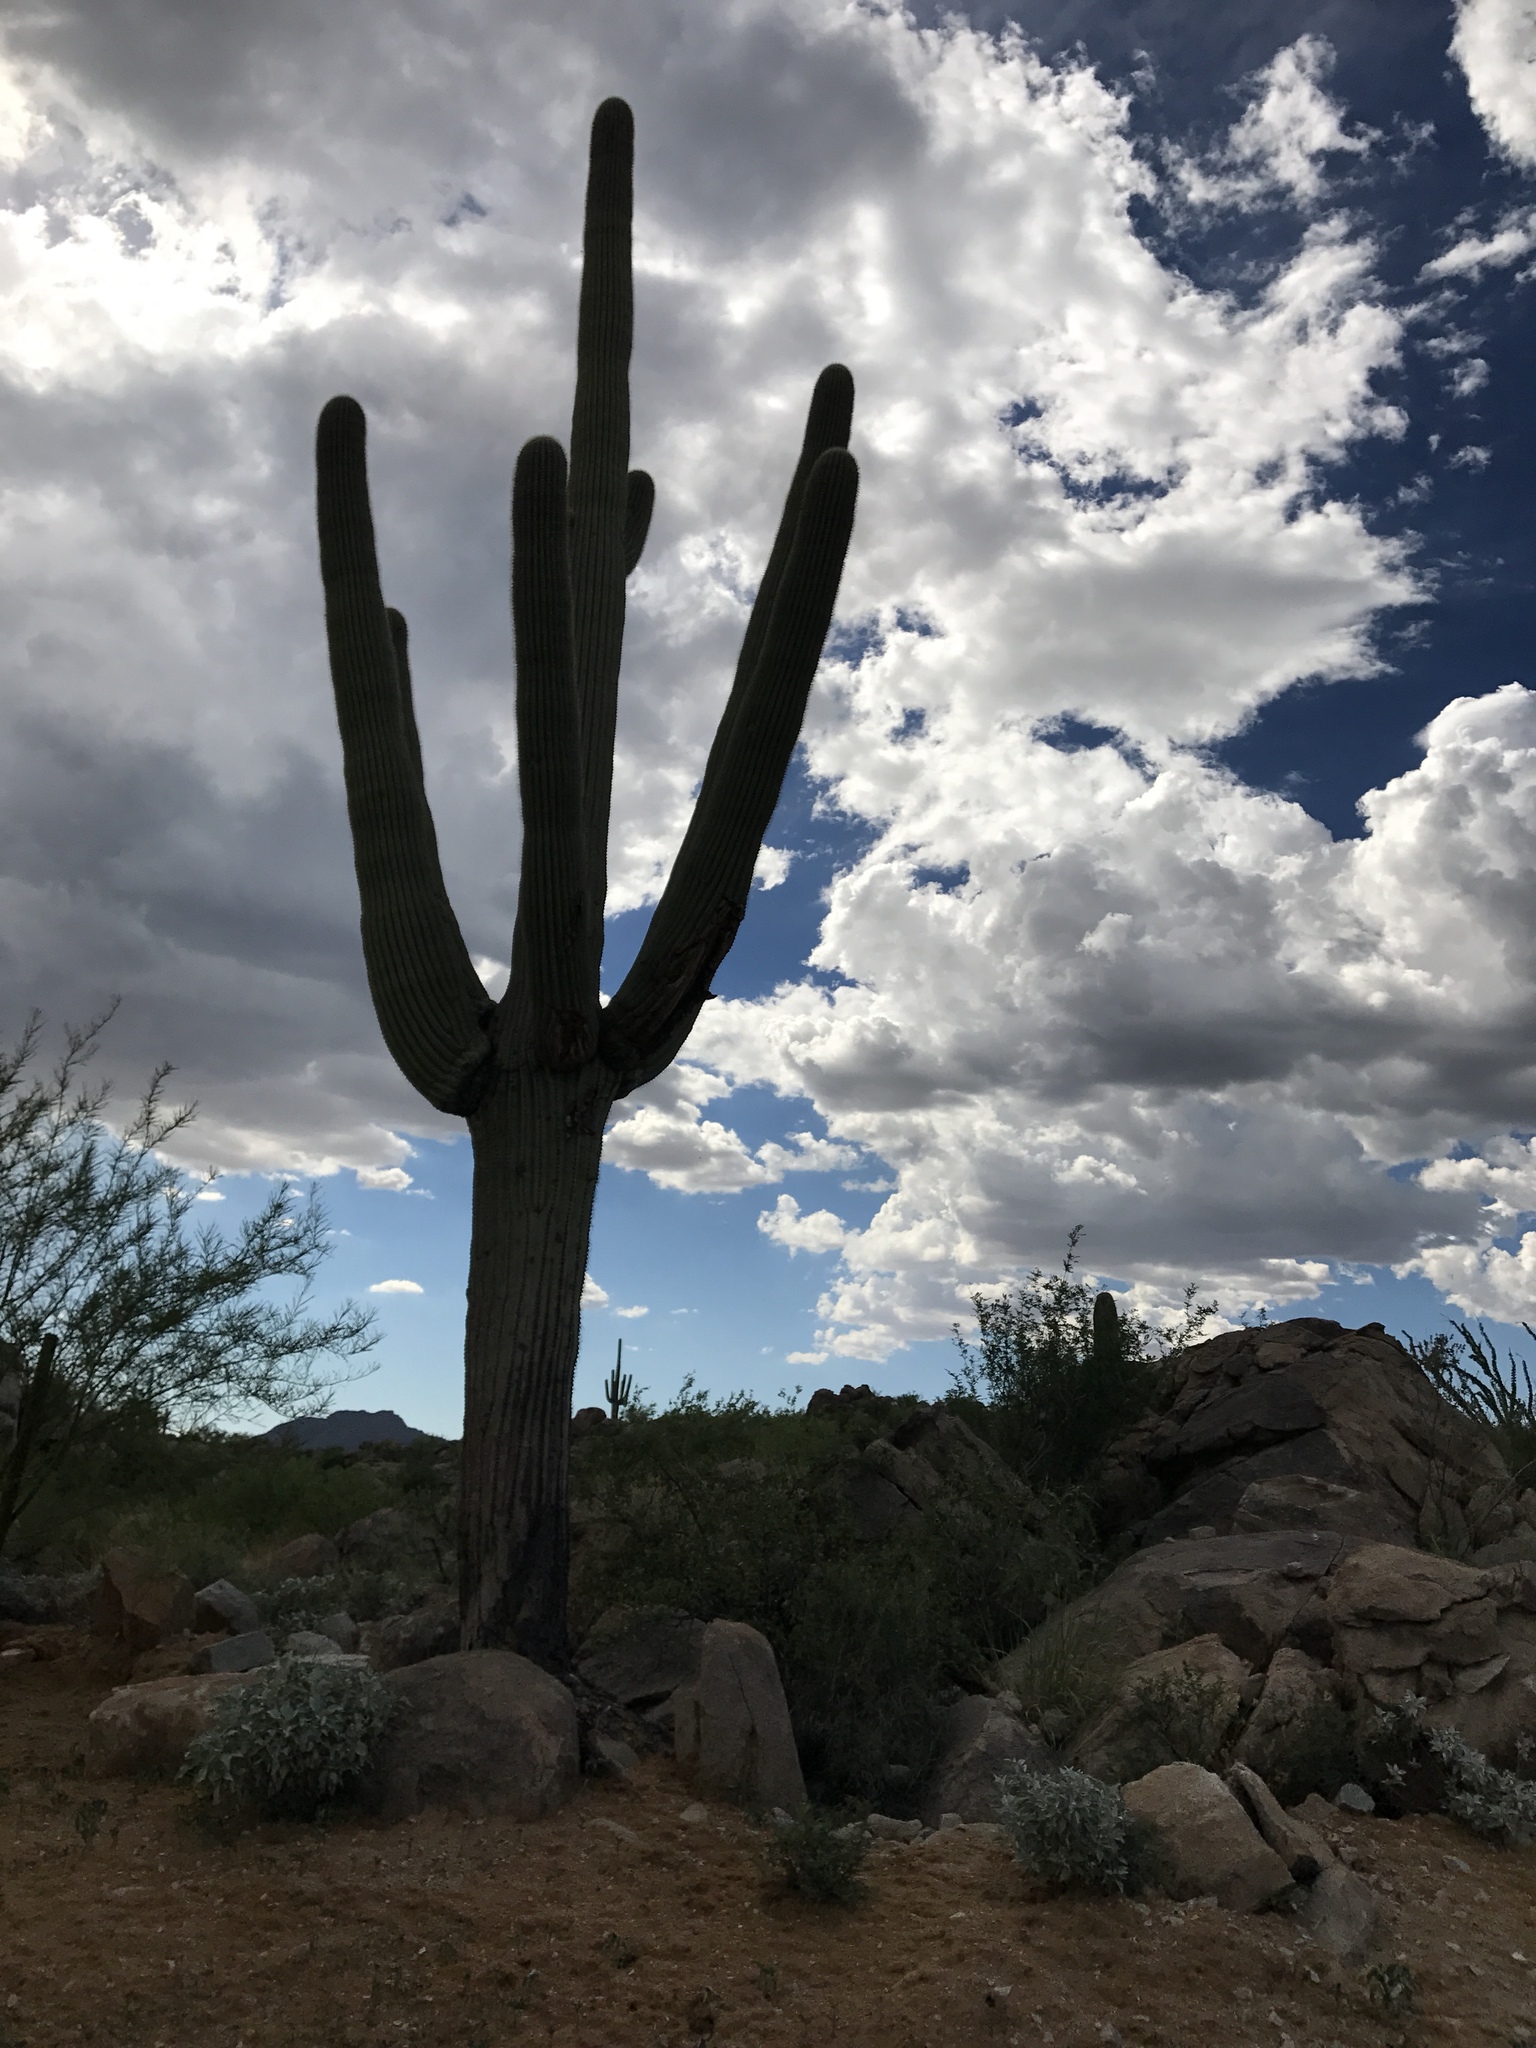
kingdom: Plantae
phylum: Tracheophyta
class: Magnoliopsida
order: Caryophyllales
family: Cactaceae
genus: Carnegiea
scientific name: Carnegiea gigantea
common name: Saguaro
